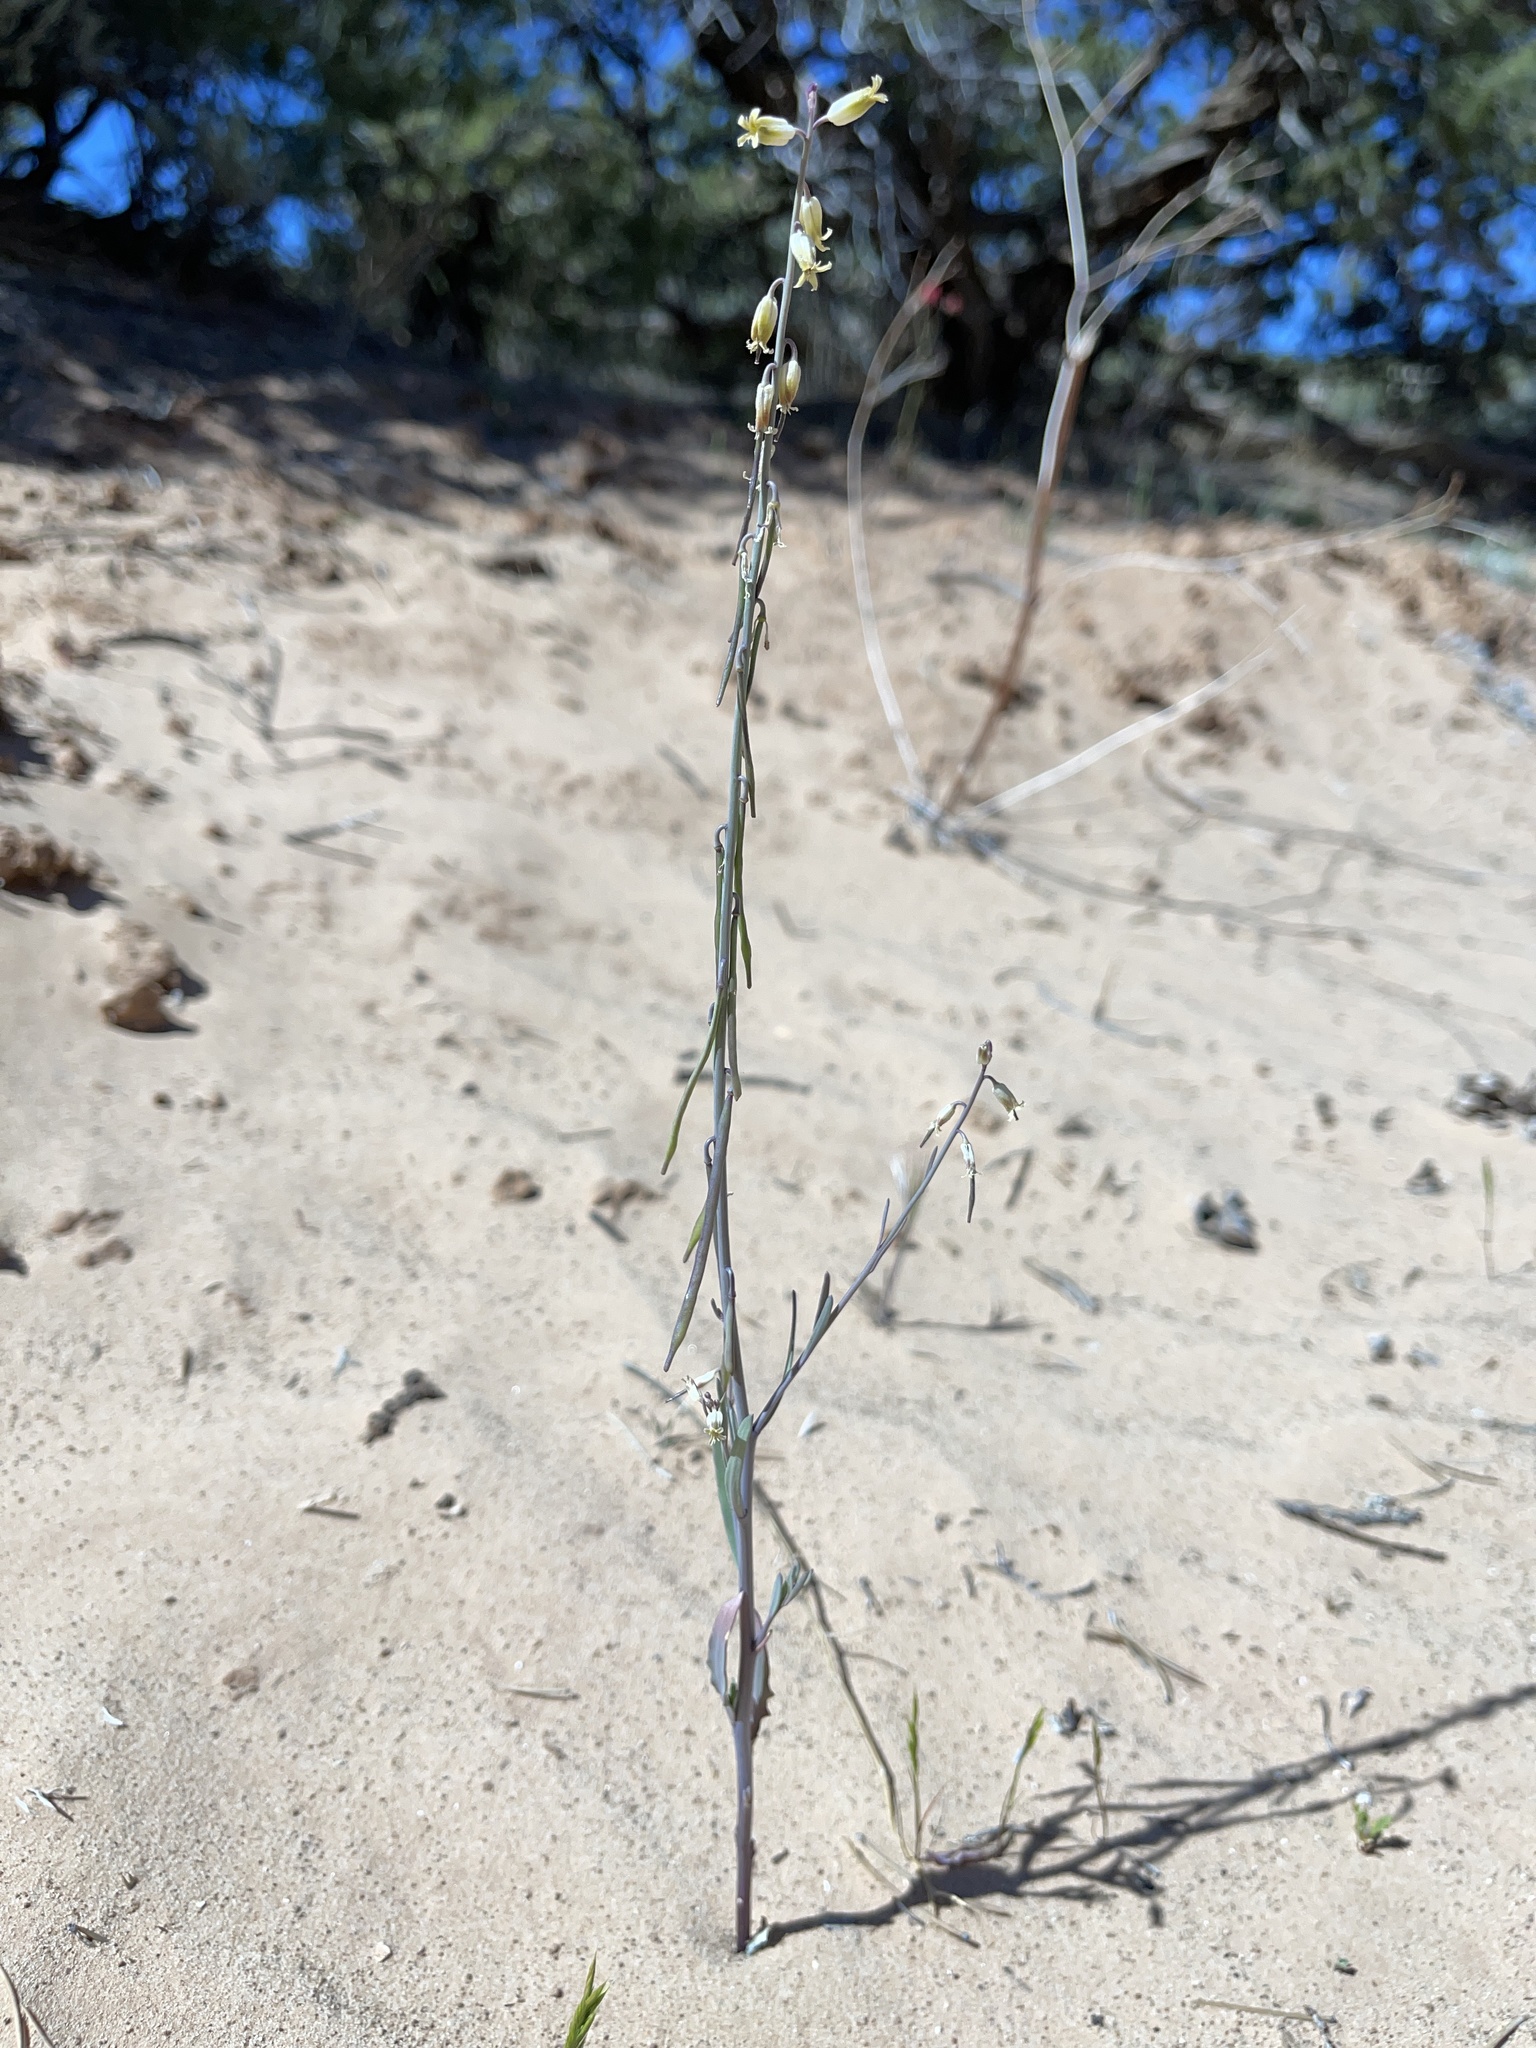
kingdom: Plantae
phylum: Tracheophyta
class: Magnoliopsida
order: Brassicales
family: Brassicaceae
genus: Streptanthus
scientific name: Streptanthus longirostris
